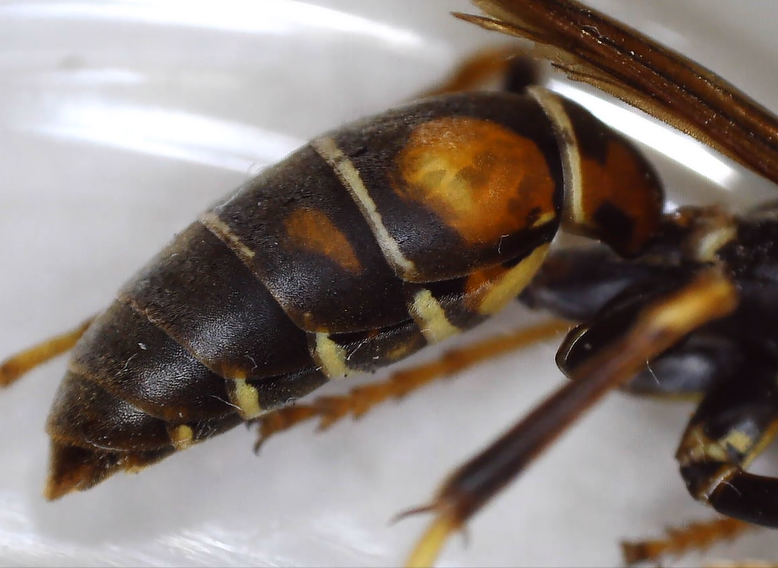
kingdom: Animalia
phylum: Arthropoda
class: Insecta
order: Hymenoptera
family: Eumenidae
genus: Polistes
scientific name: Polistes fuscatus
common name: Dark paper wasp
